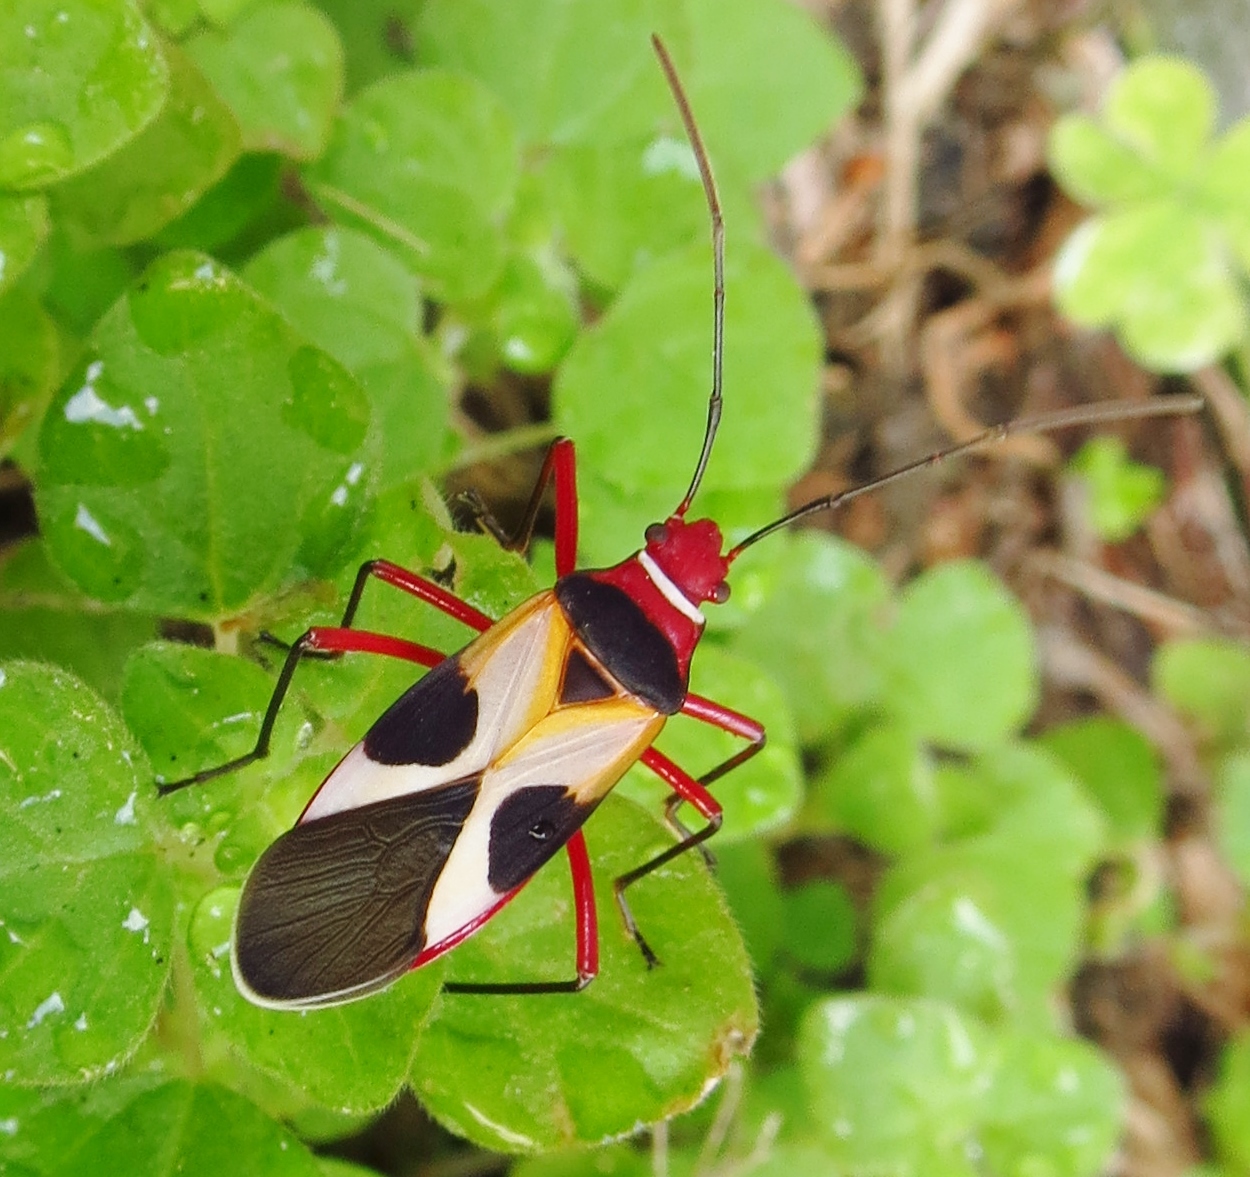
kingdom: Animalia
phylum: Arthropoda
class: Insecta
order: Hemiptera
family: Pyrrhocoridae
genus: Dysdercus
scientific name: Dysdercus concinnus
